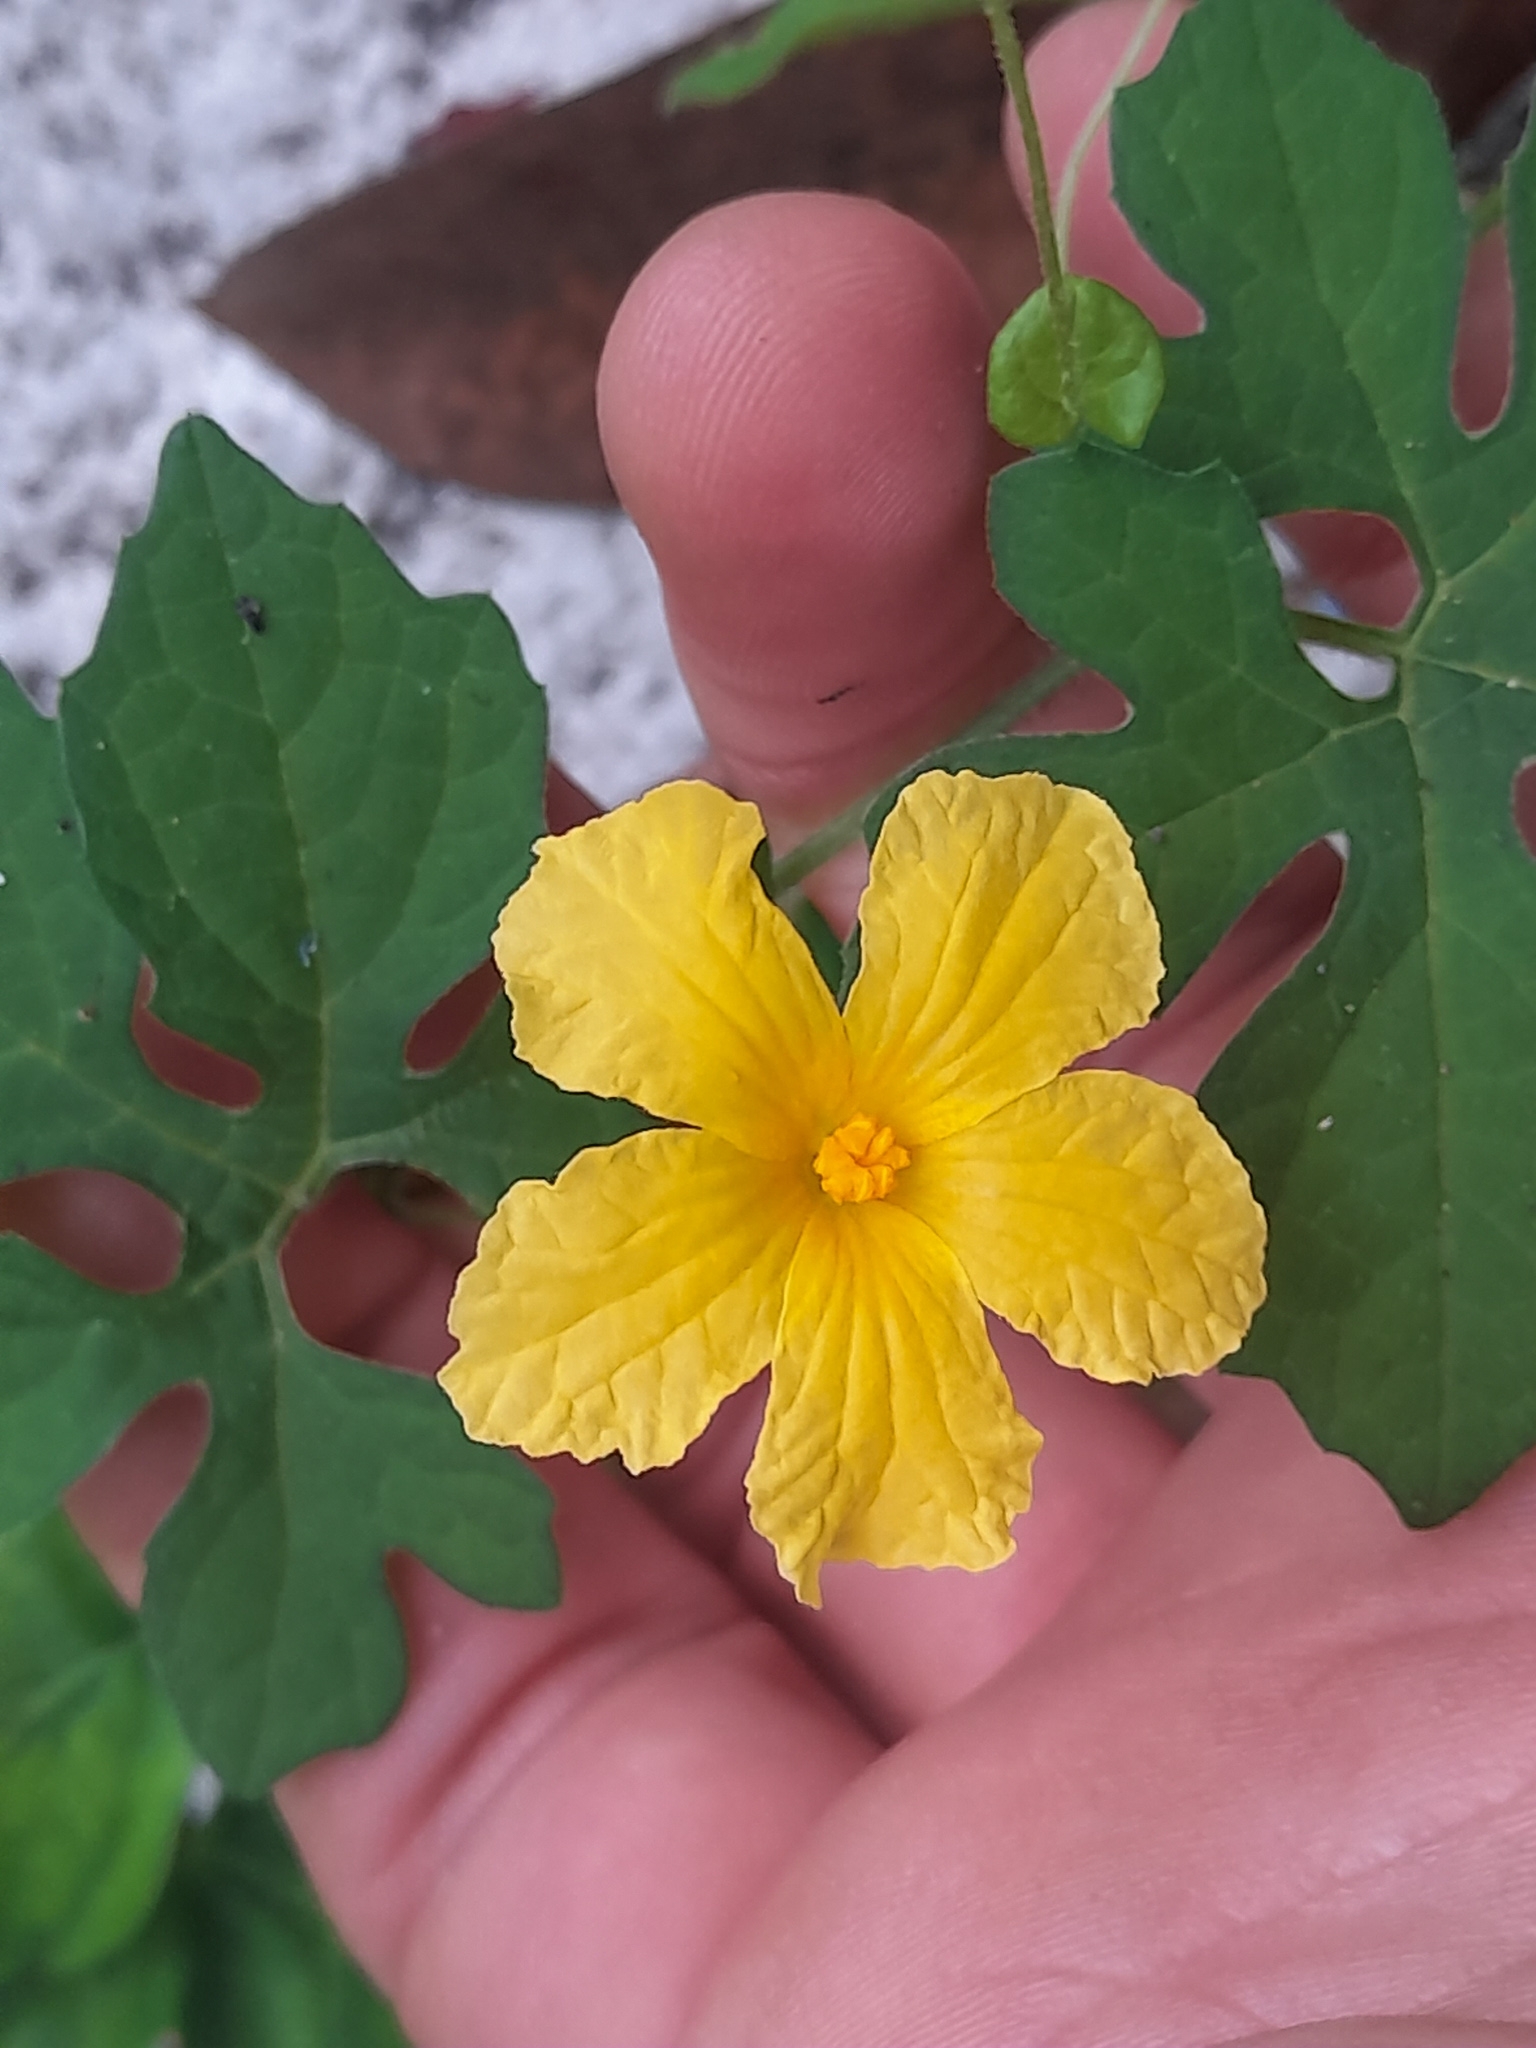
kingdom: Plantae
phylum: Tracheophyta
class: Magnoliopsida
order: Cucurbitales
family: Cucurbitaceae
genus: Momordica
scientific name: Momordica charantia
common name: Balsampear
